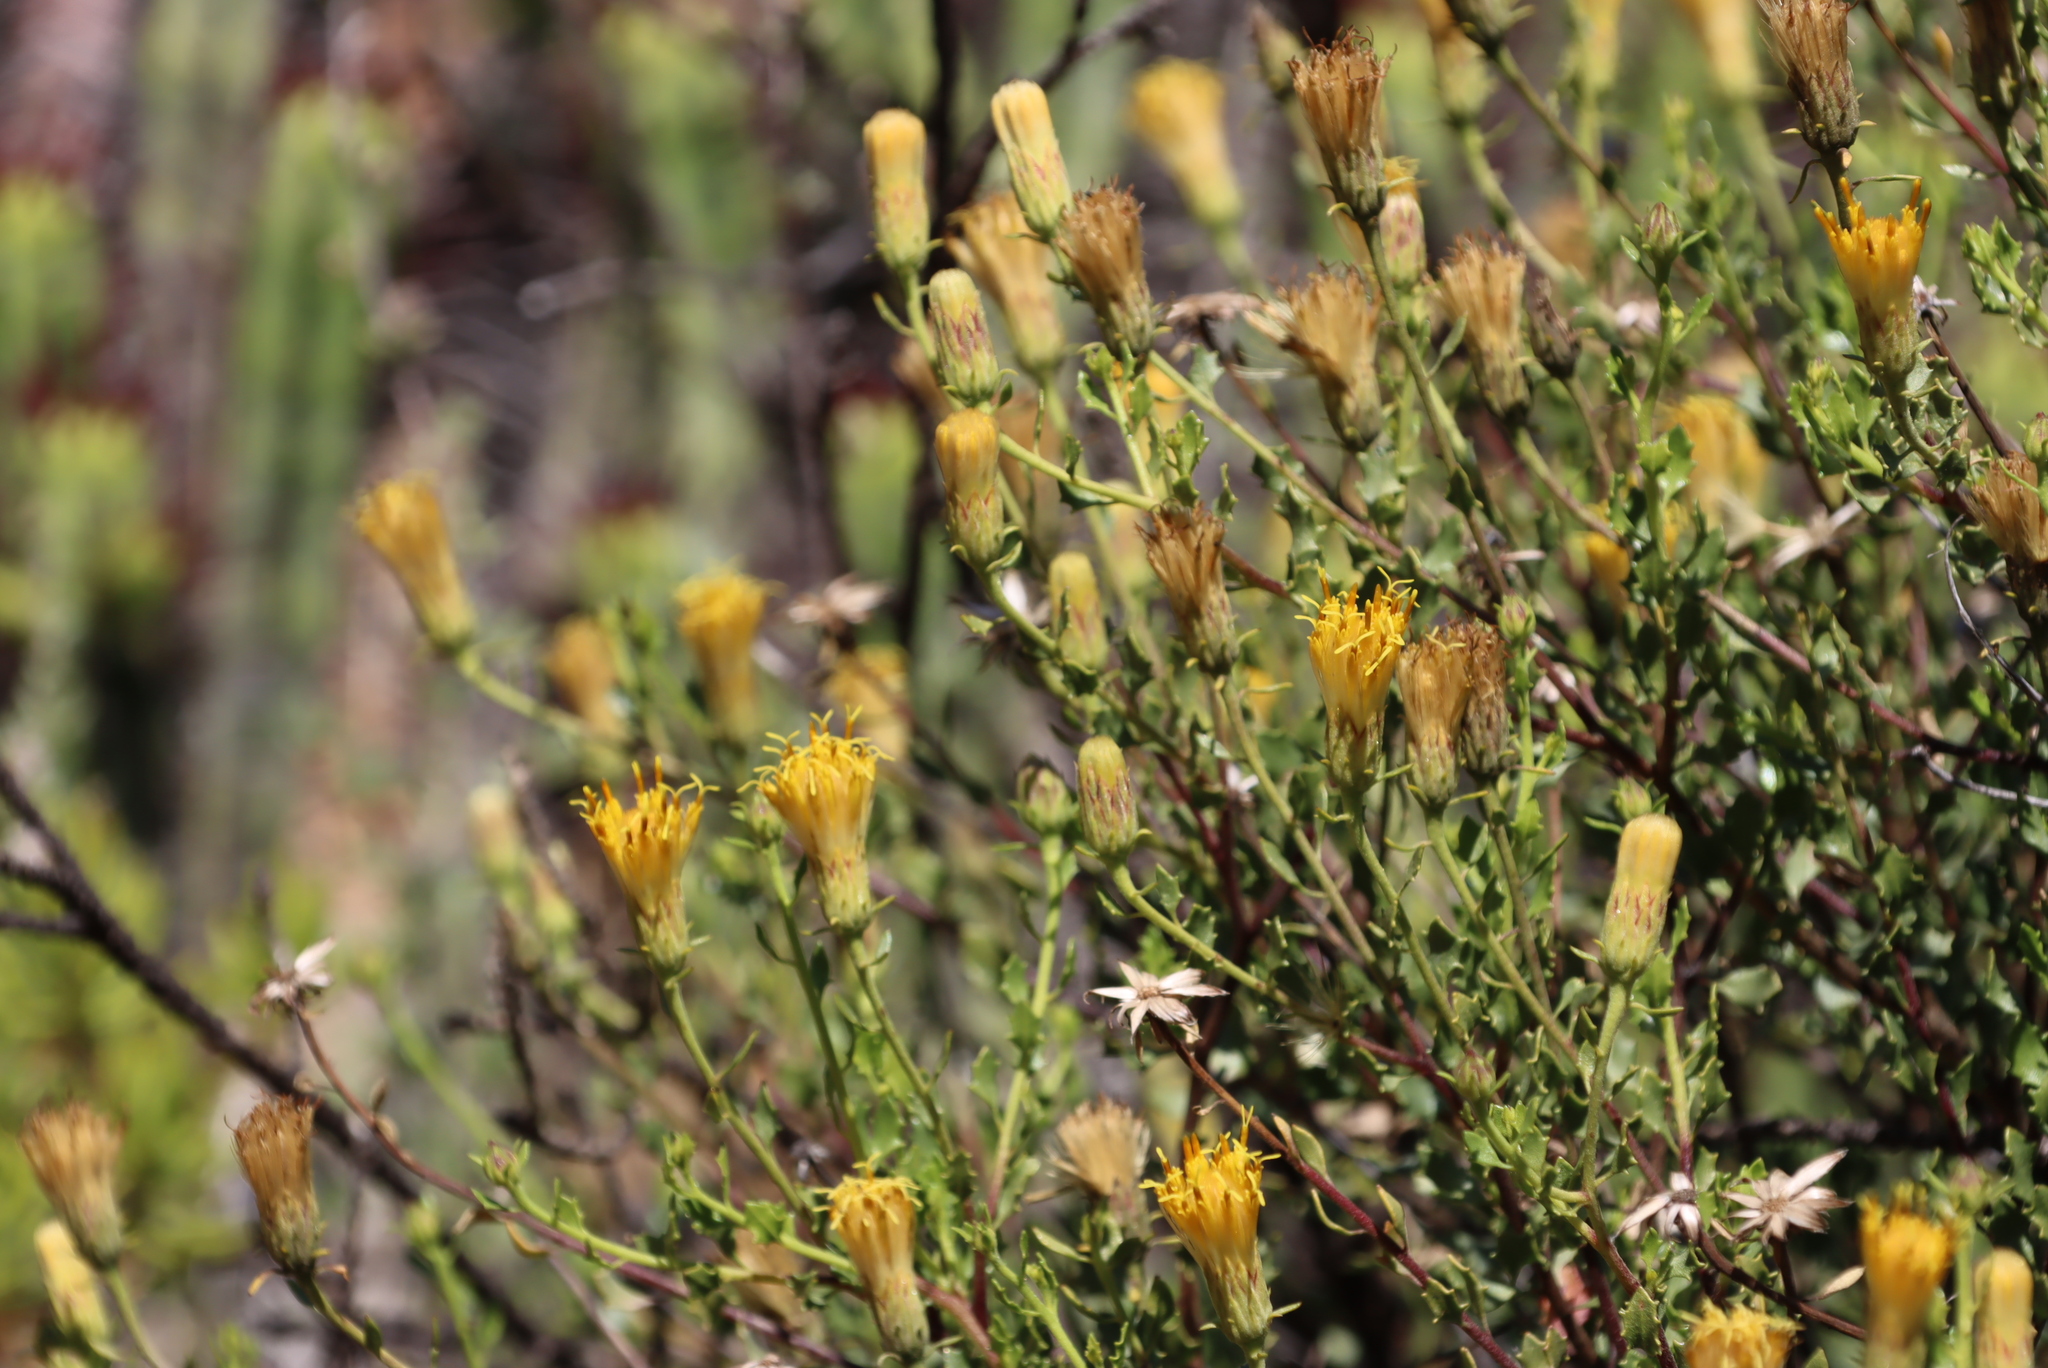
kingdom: Plantae
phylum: Tracheophyta
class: Magnoliopsida
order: Asterales
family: Asteraceae
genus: Pegolettia
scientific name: Pegolettia baccaridifolia
